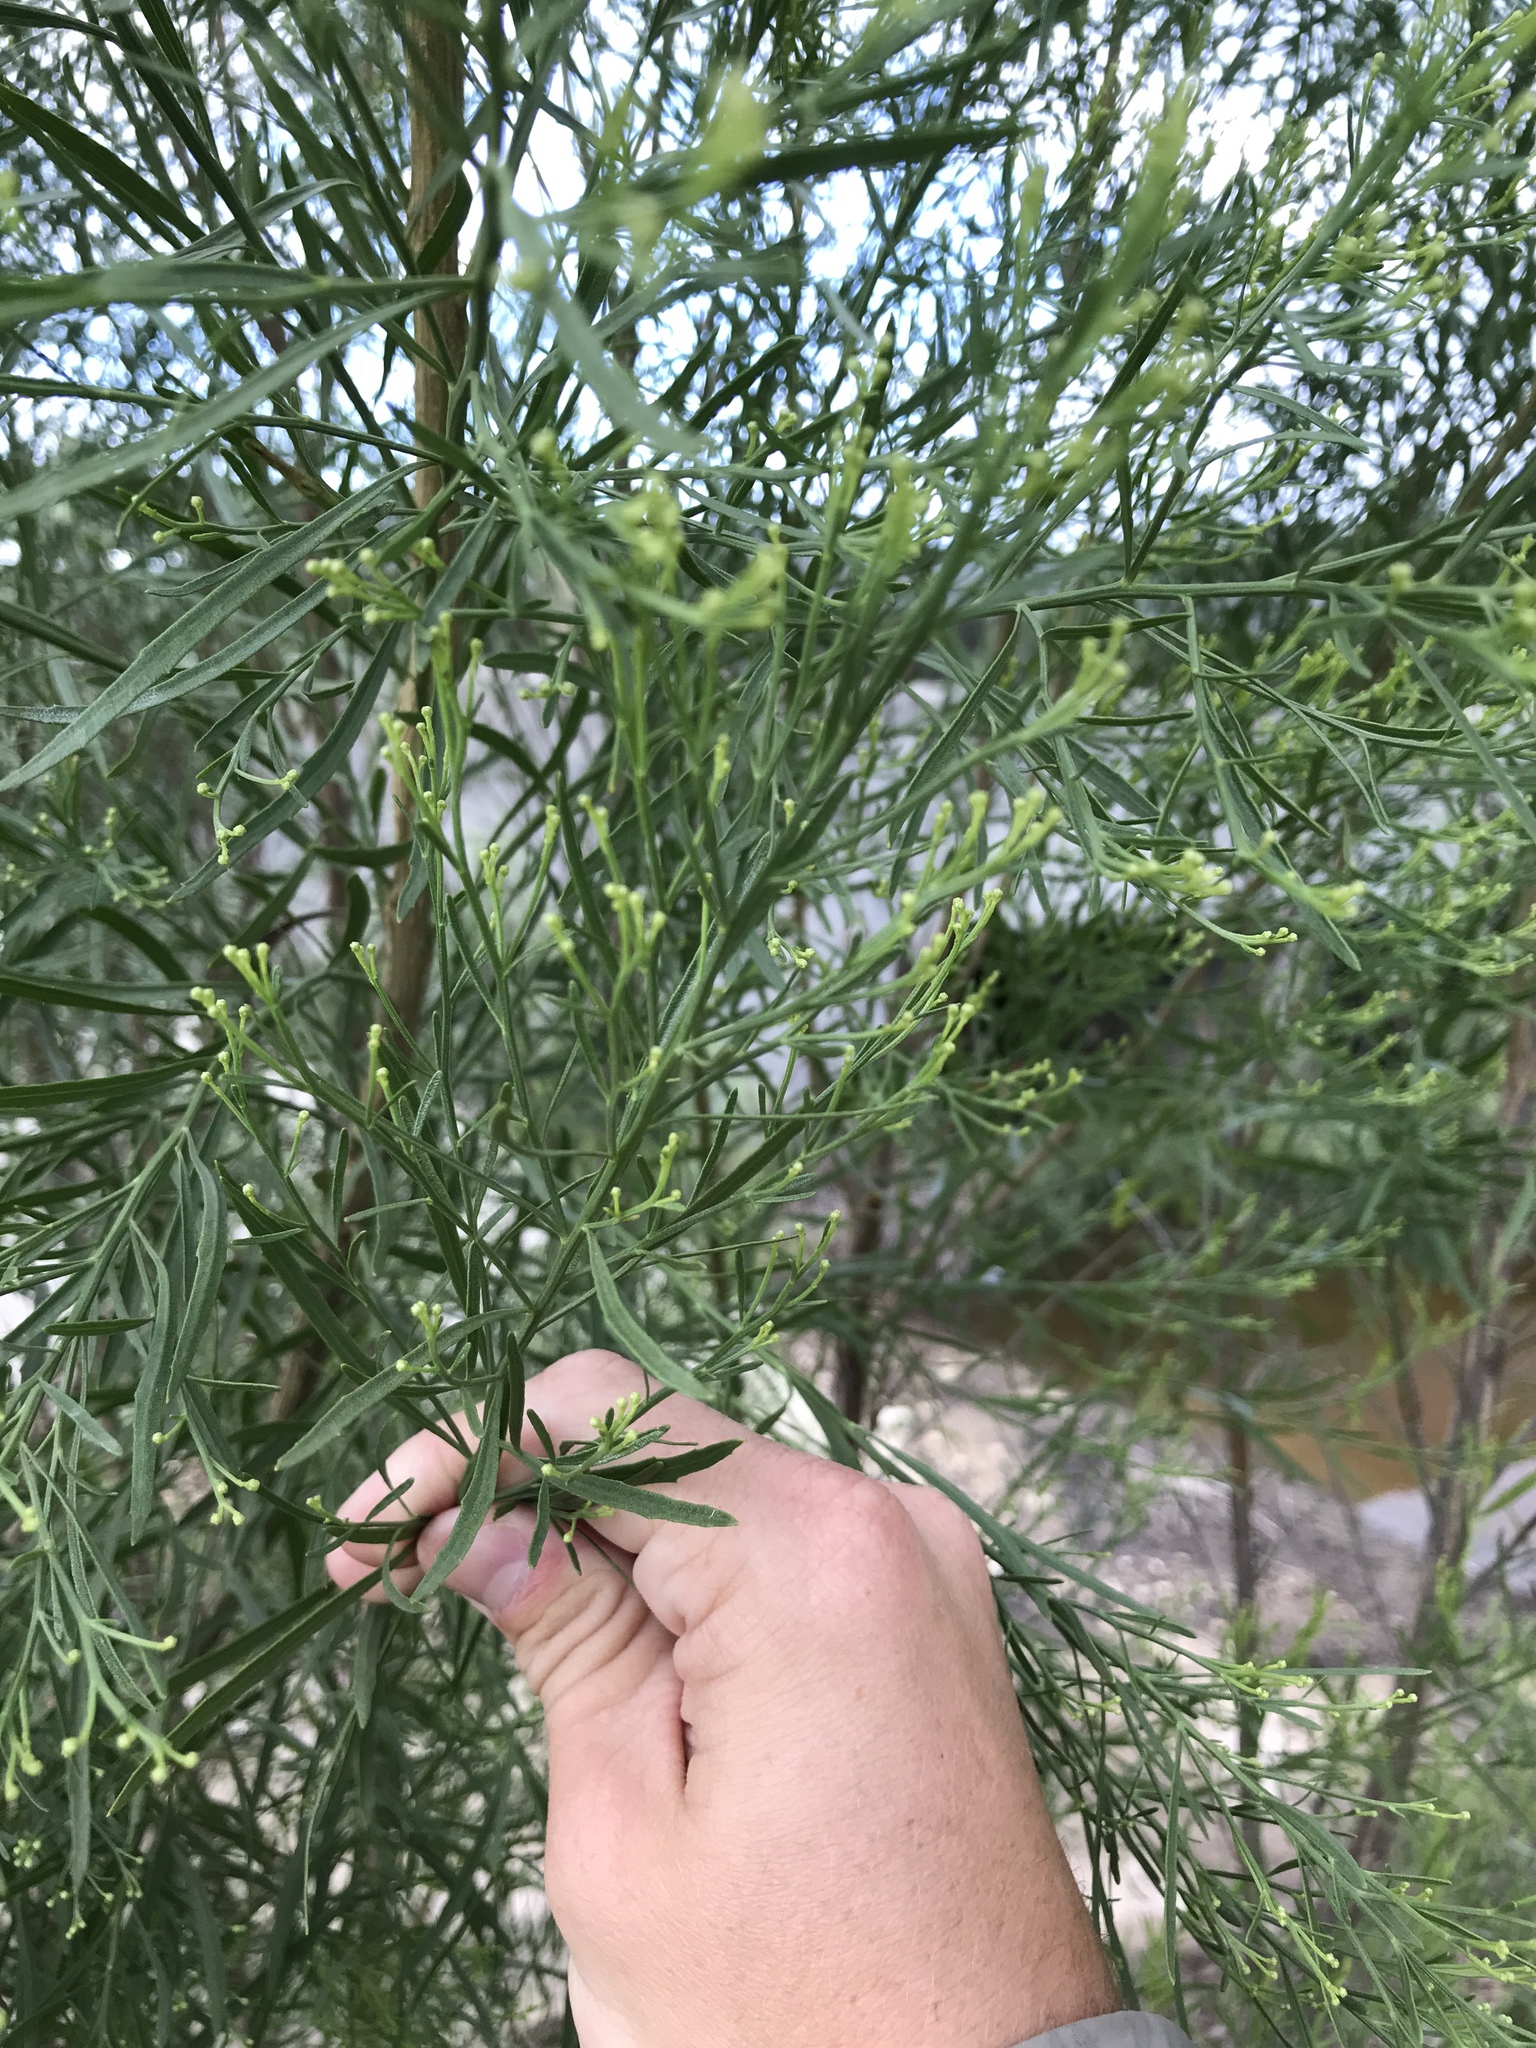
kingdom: Plantae
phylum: Tracheophyta
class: Magnoliopsida
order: Asterales
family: Asteraceae
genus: Baccharis
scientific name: Baccharis neglecta
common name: Roosevelt-weed
